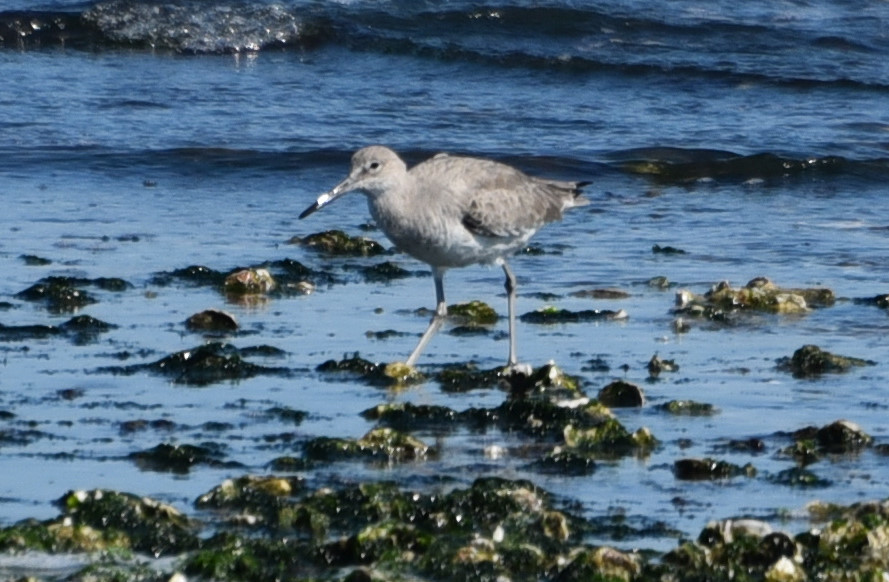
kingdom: Animalia
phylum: Chordata
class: Aves
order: Charadriiformes
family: Scolopacidae
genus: Tringa
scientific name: Tringa semipalmata
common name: Willet
